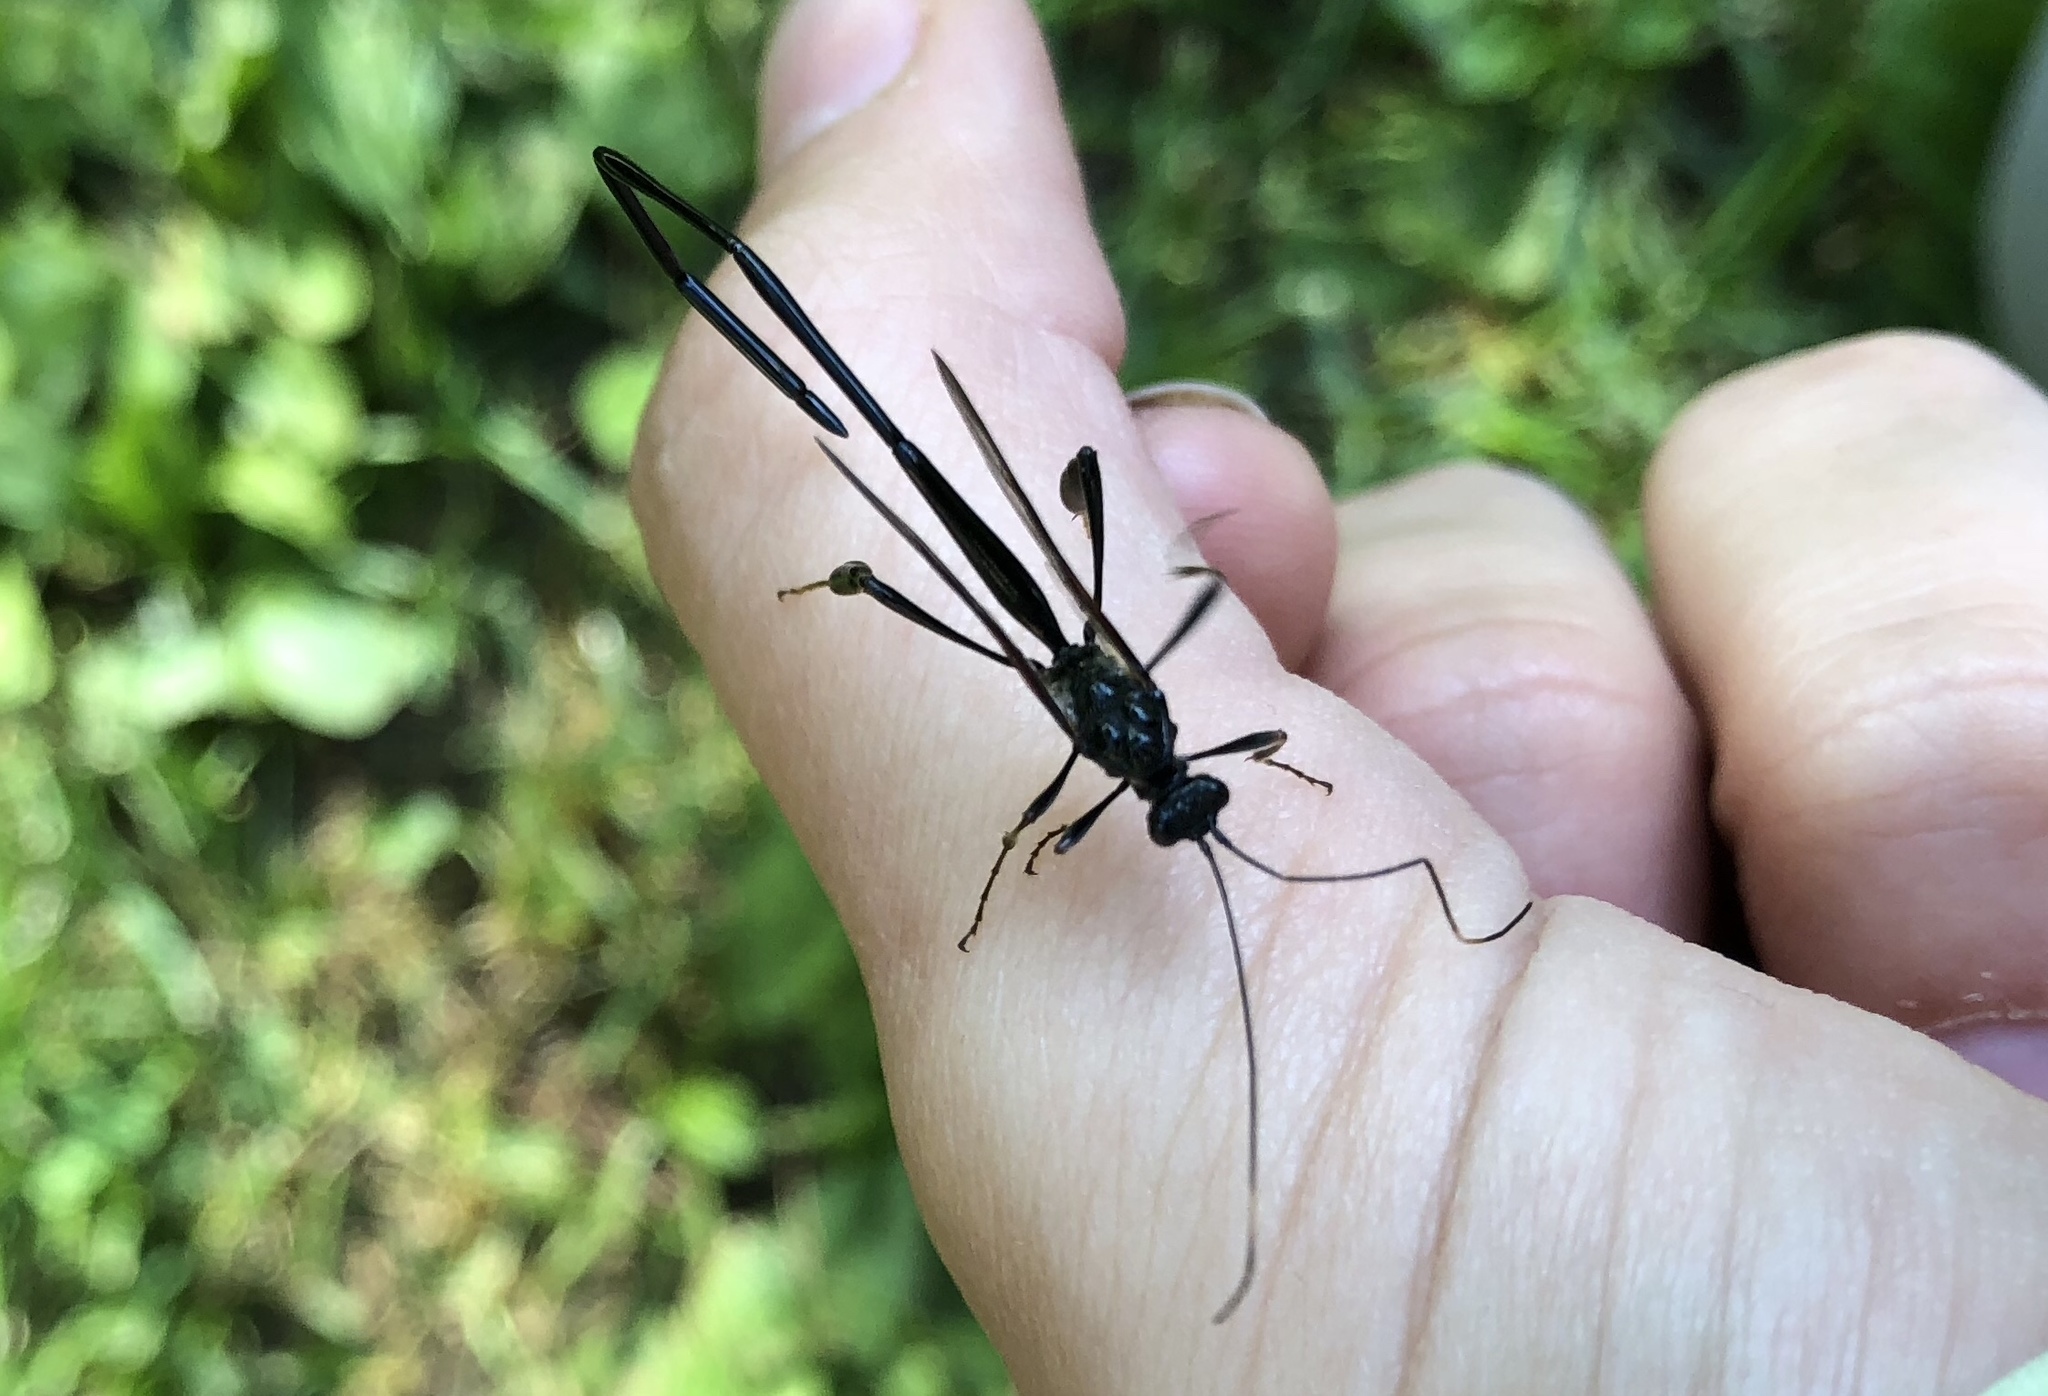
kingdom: Animalia
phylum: Arthropoda
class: Insecta
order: Hymenoptera
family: Pelecinidae
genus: Pelecinus
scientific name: Pelecinus polyturator
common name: American pelecinid wasp
